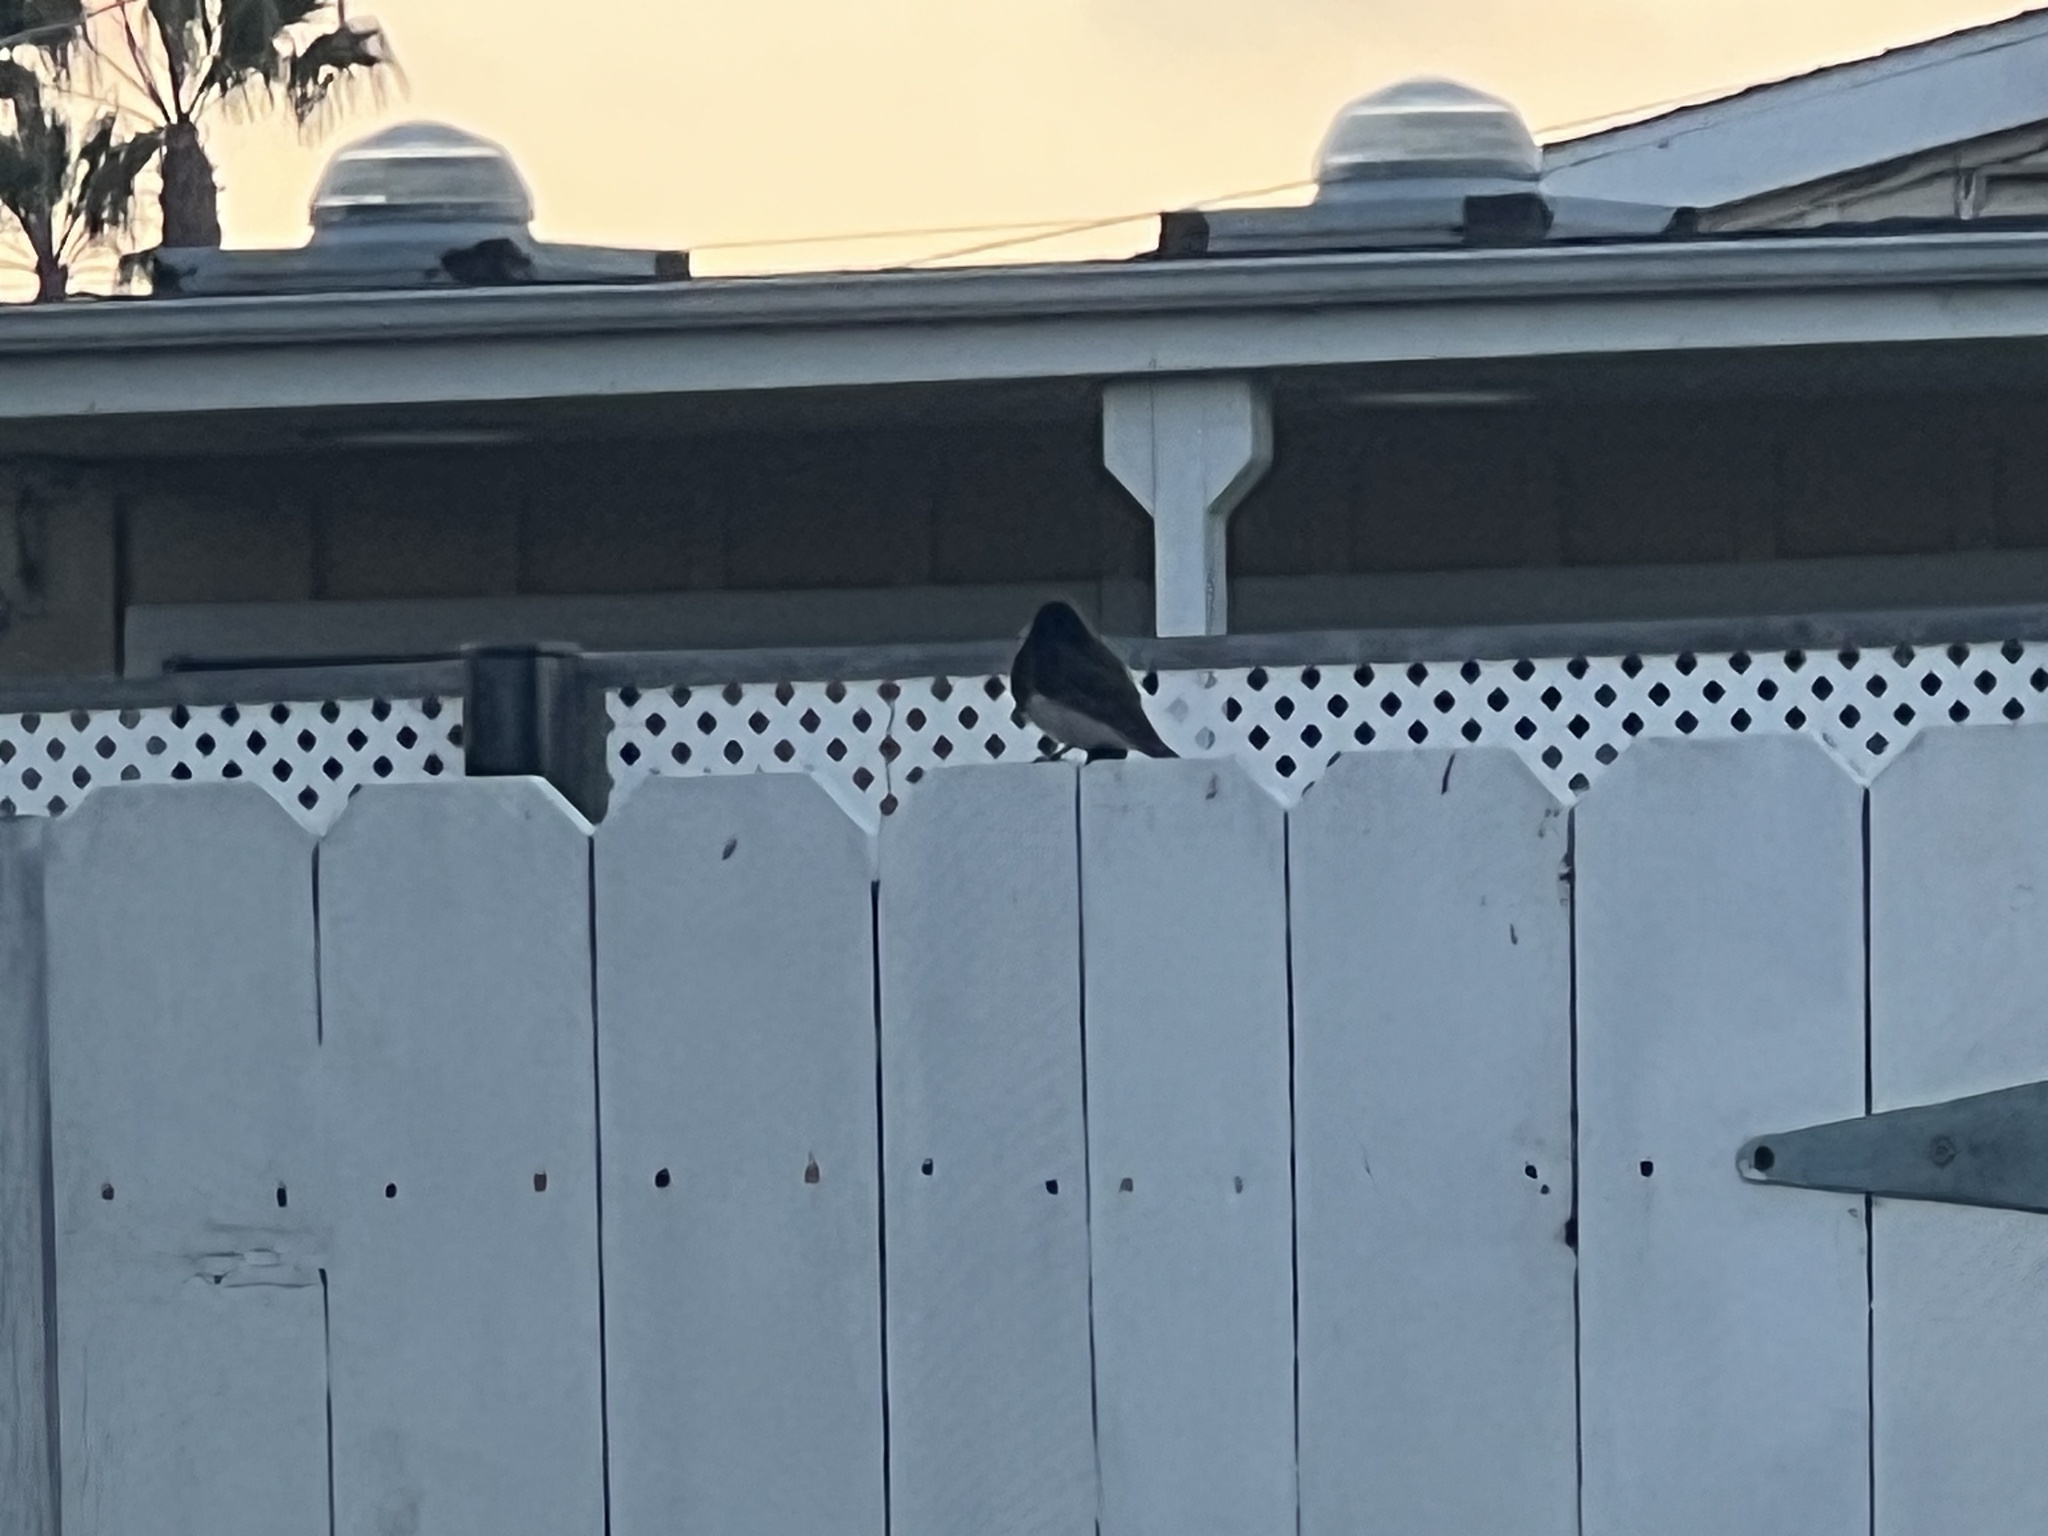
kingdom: Animalia
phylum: Chordata
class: Aves
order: Passeriformes
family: Tyrannidae
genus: Sayornis
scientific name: Sayornis nigricans
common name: Black phoebe
